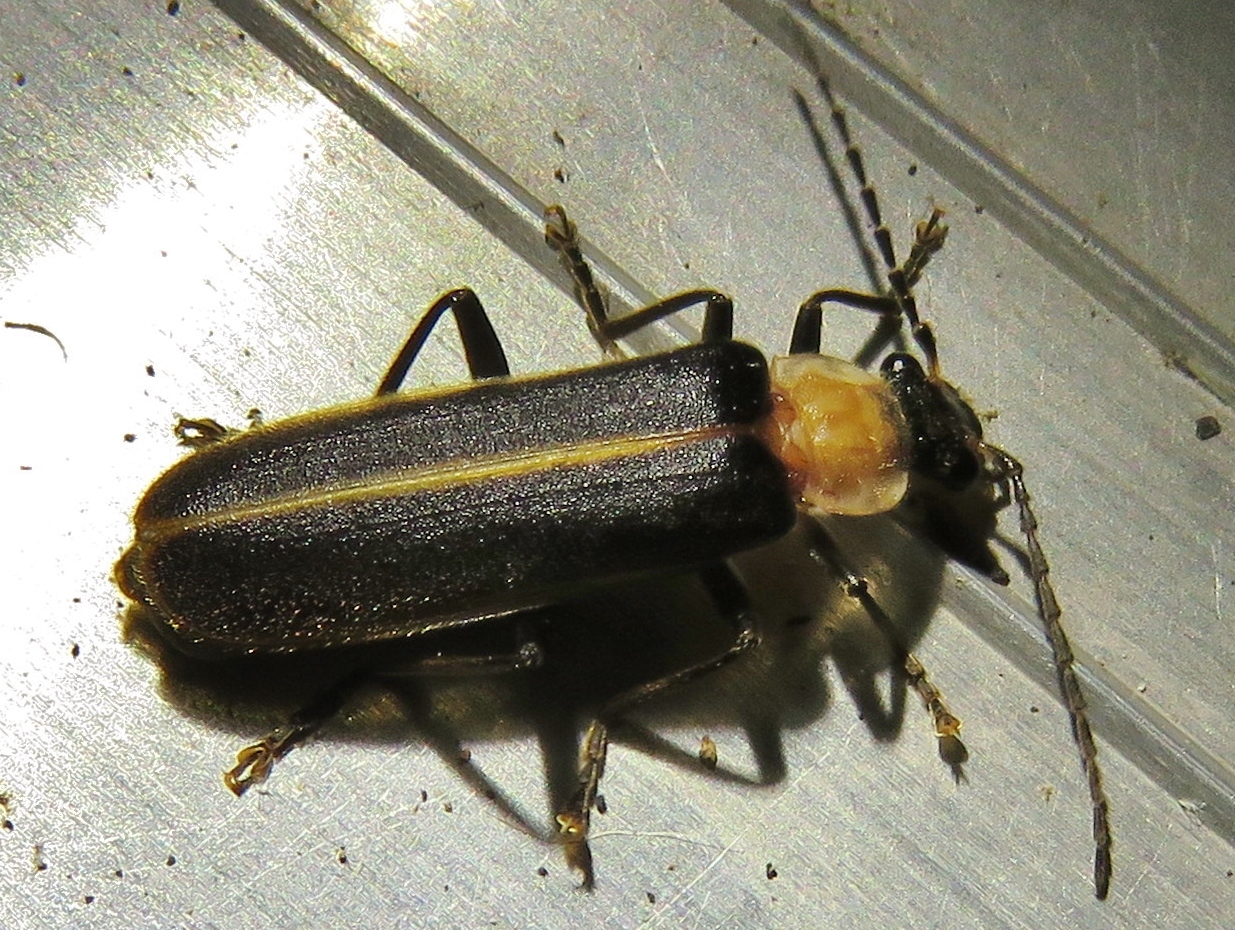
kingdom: Animalia
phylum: Arthropoda
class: Insecta
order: Coleoptera
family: Cantharidae
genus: Podabrus
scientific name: Podabrus flavicollis
